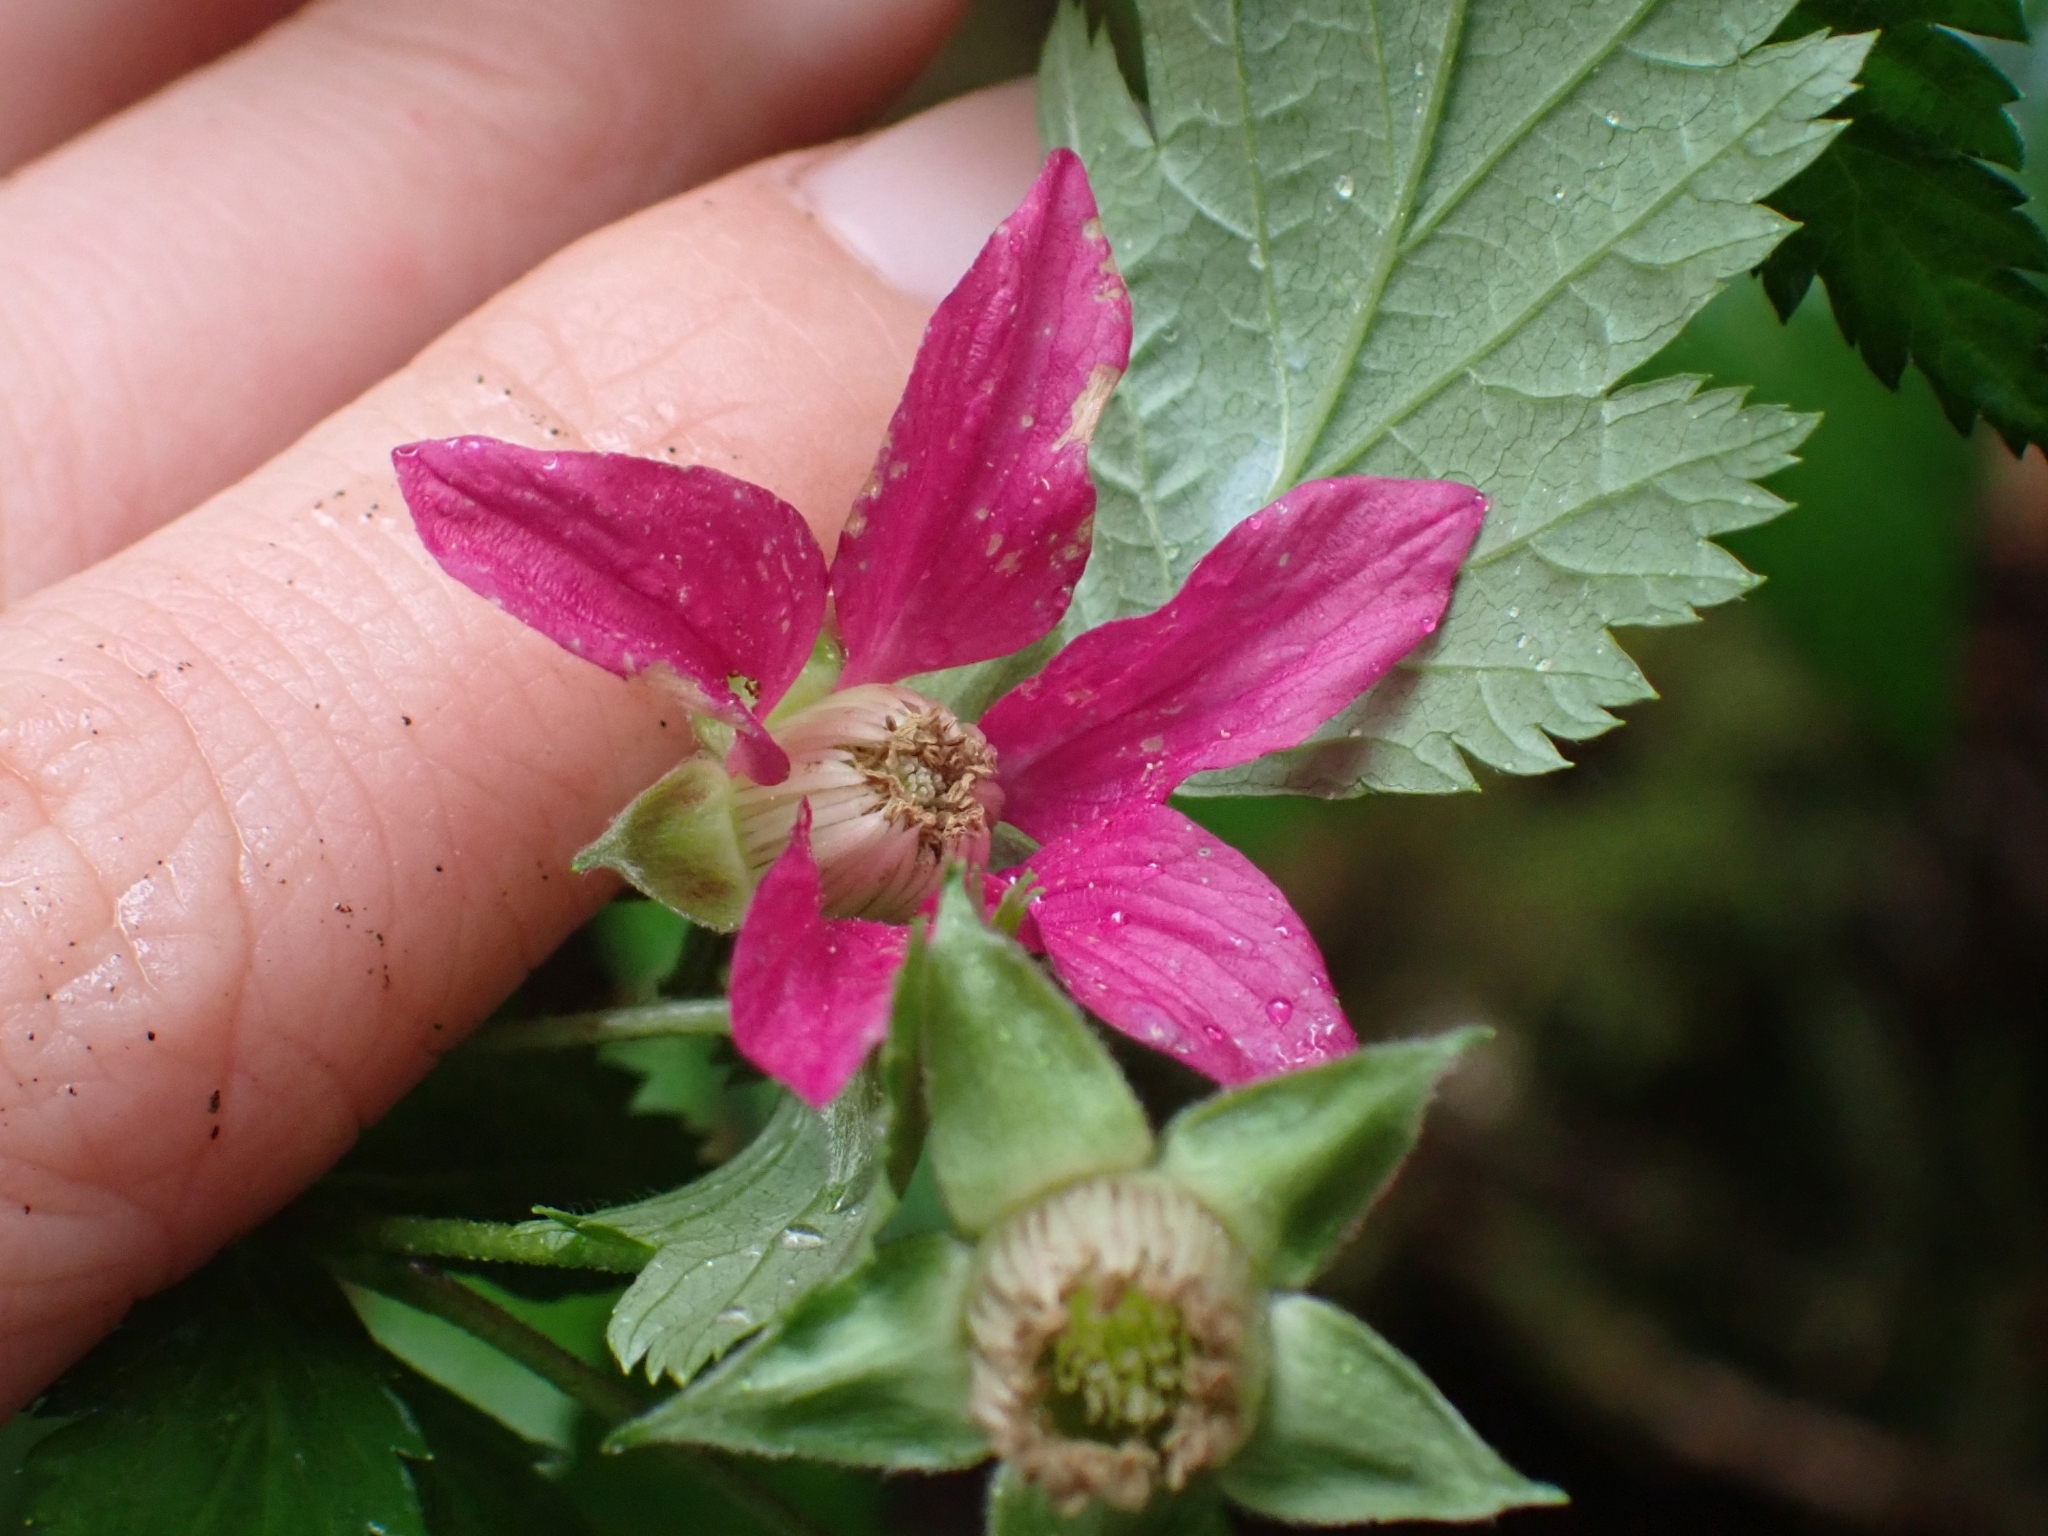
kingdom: Plantae
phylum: Tracheophyta
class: Magnoliopsida
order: Rosales
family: Rosaceae
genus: Rubus
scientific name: Rubus spectabilis
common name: Salmonberry
